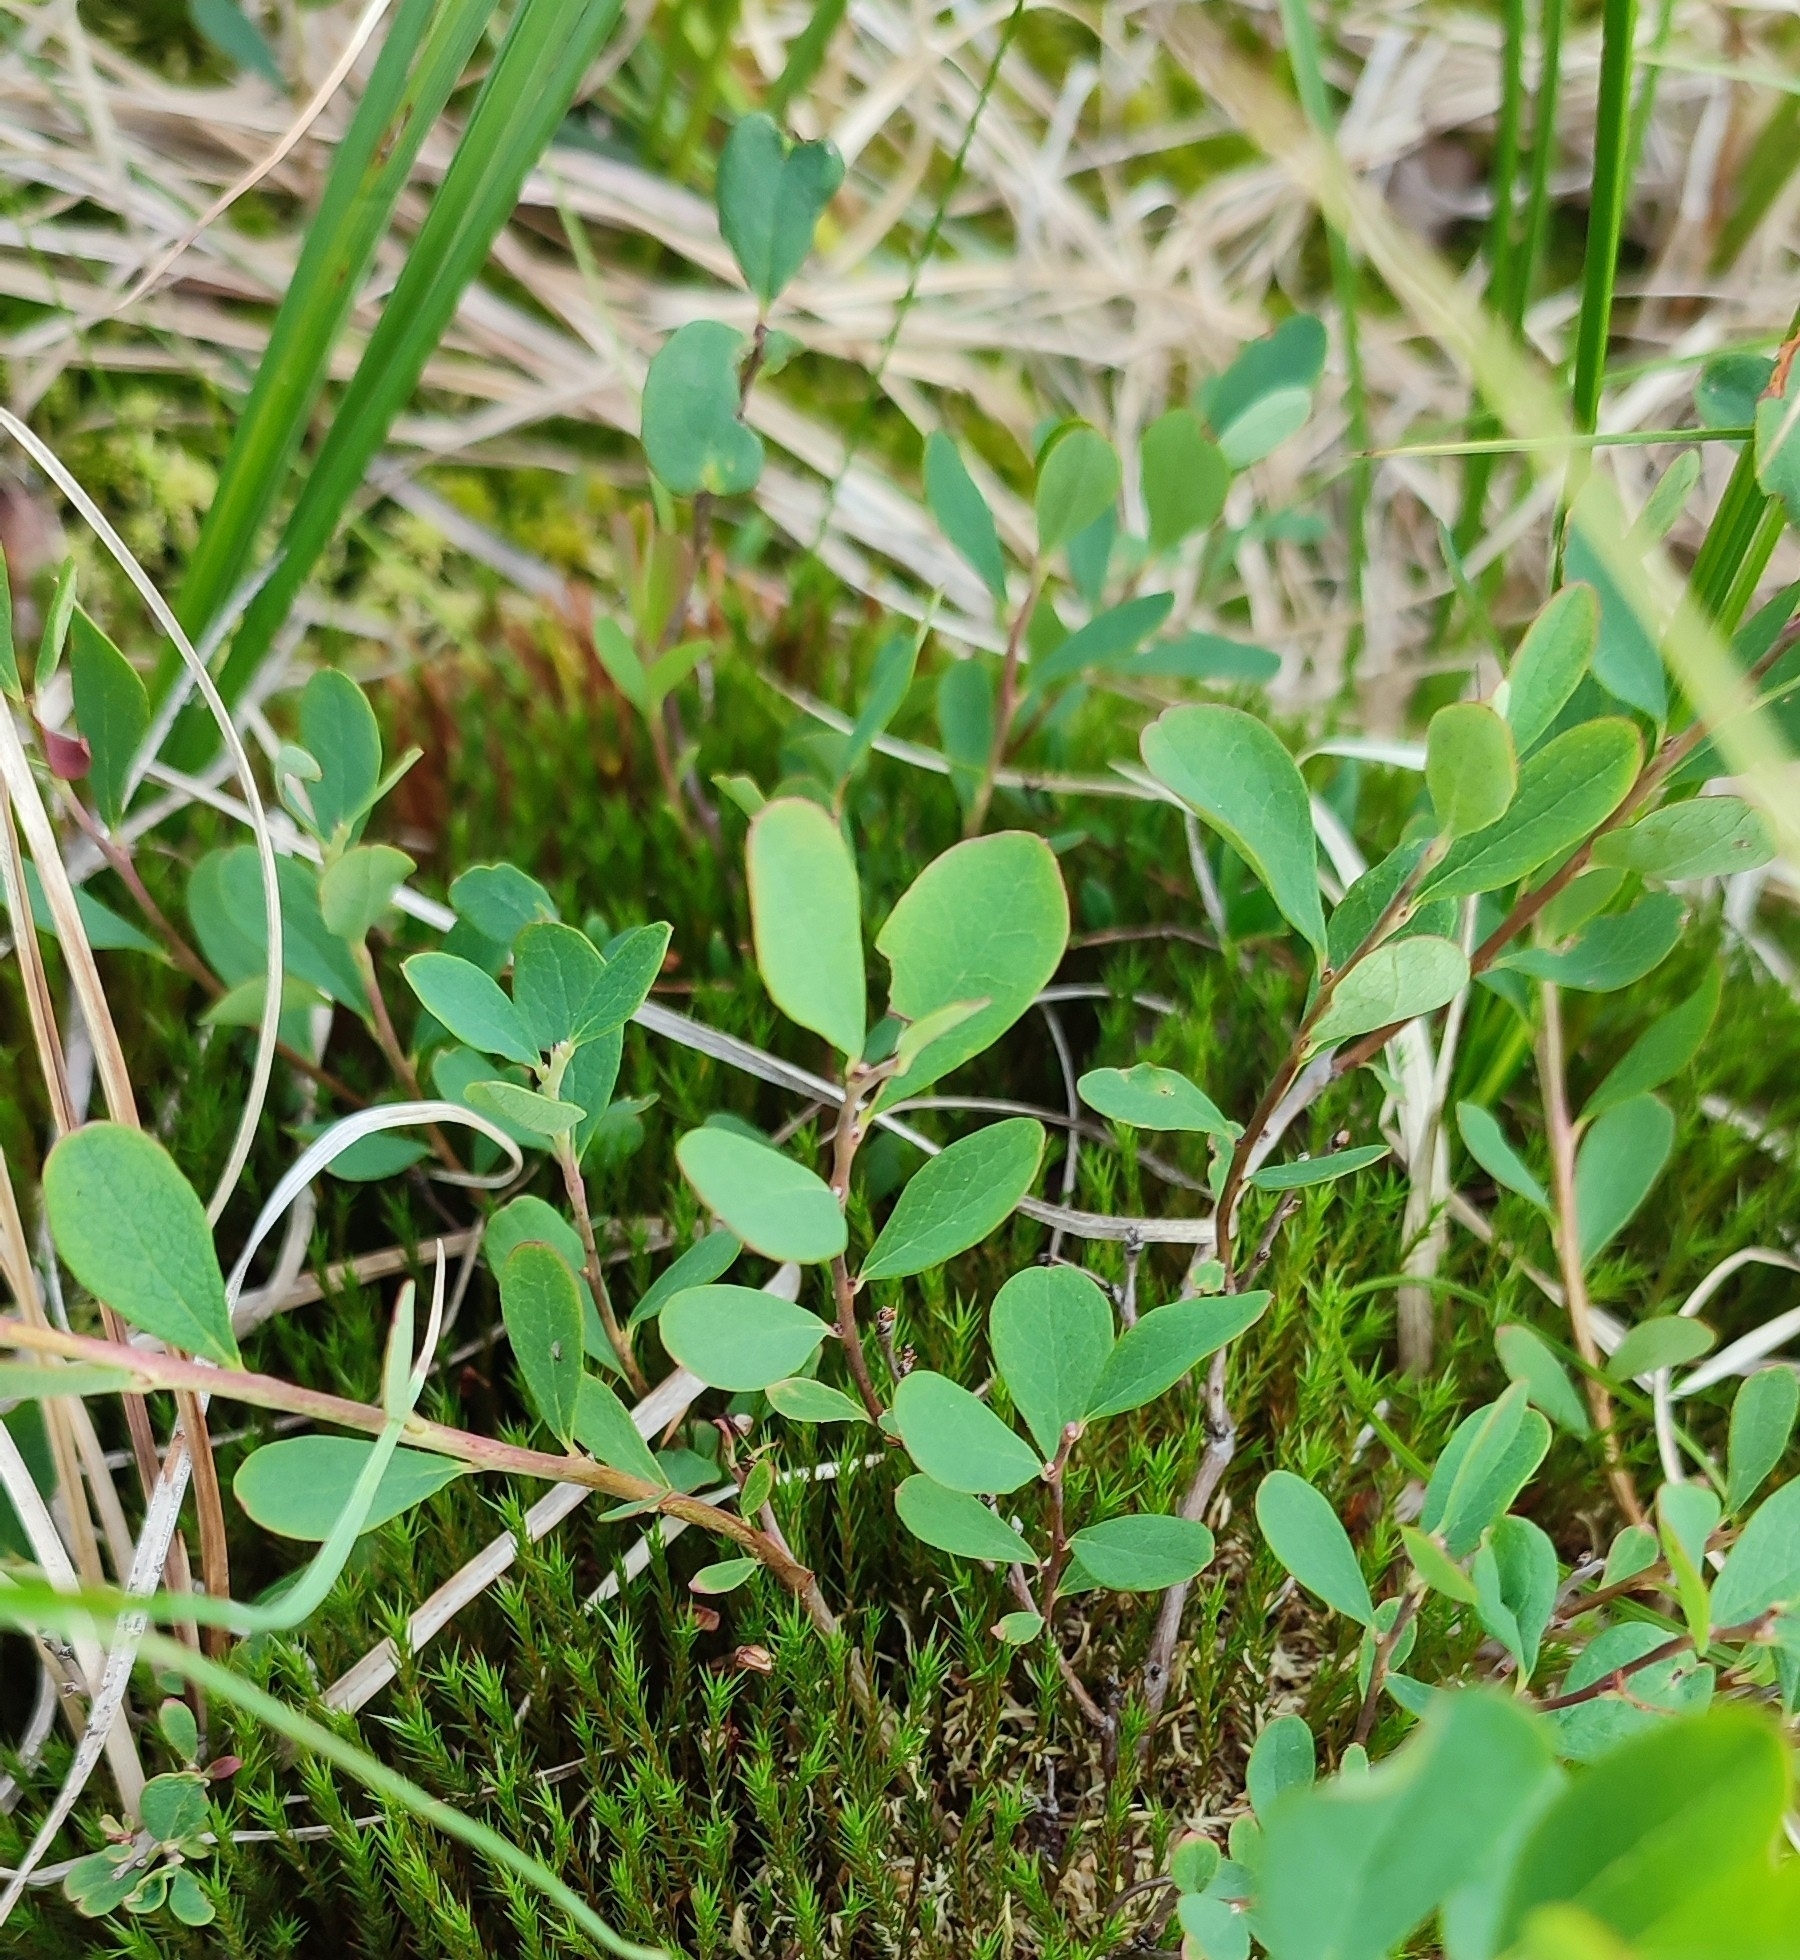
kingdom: Plantae
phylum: Tracheophyta
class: Magnoliopsida
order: Ericales
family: Ericaceae
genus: Vaccinium
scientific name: Vaccinium uliginosum
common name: Bog bilberry
